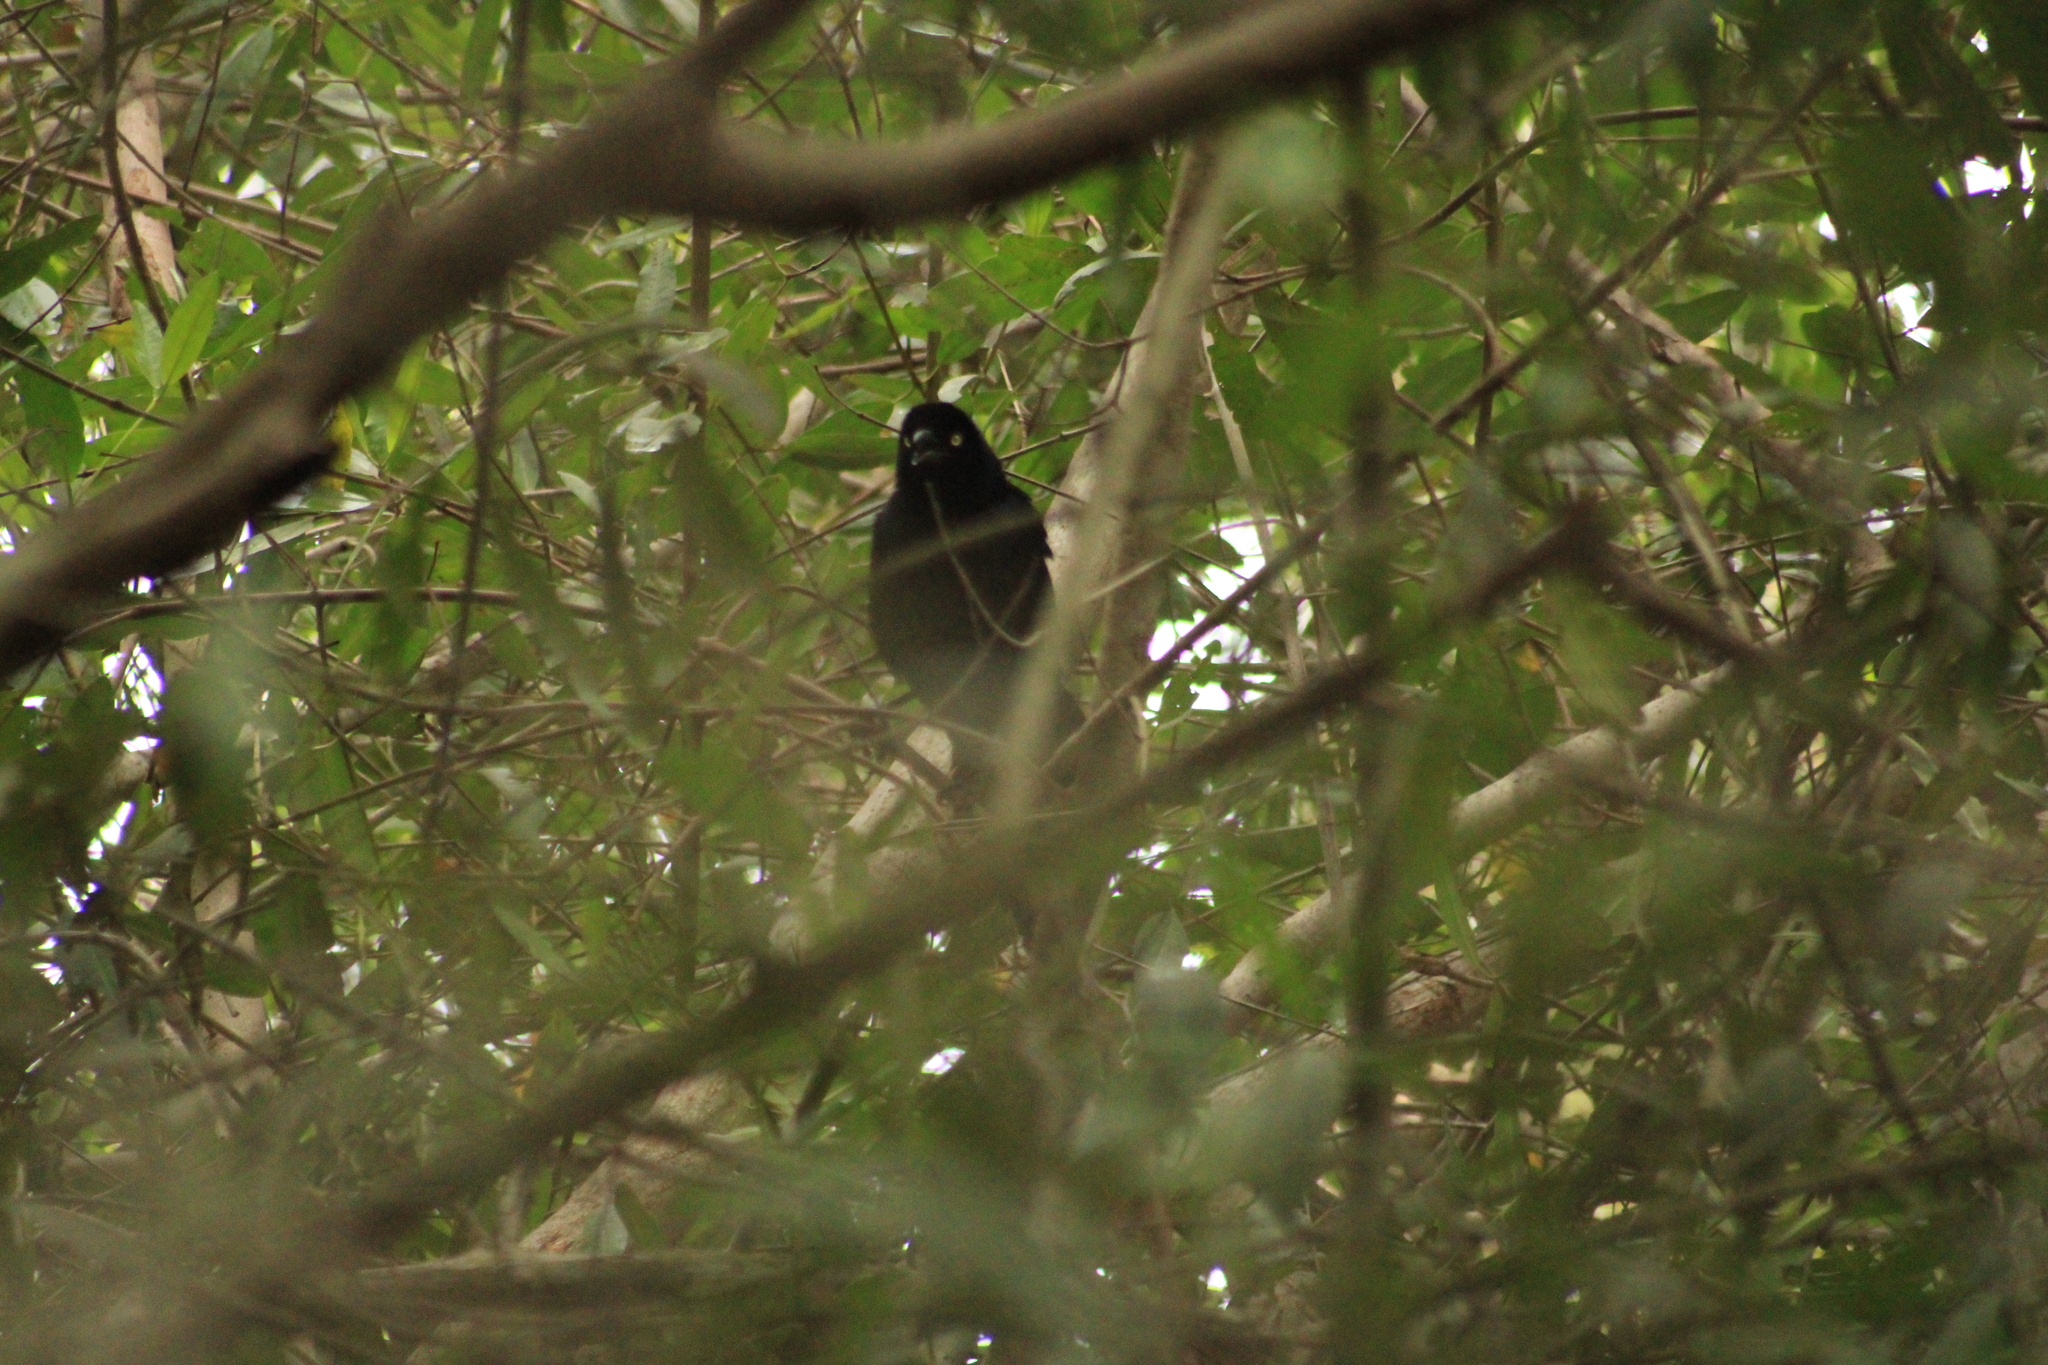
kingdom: Animalia
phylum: Chordata
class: Aves
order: Passeriformes
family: Icteridae
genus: Quiscalus
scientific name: Quiscalus mexicanus
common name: Great-tailed grackle
